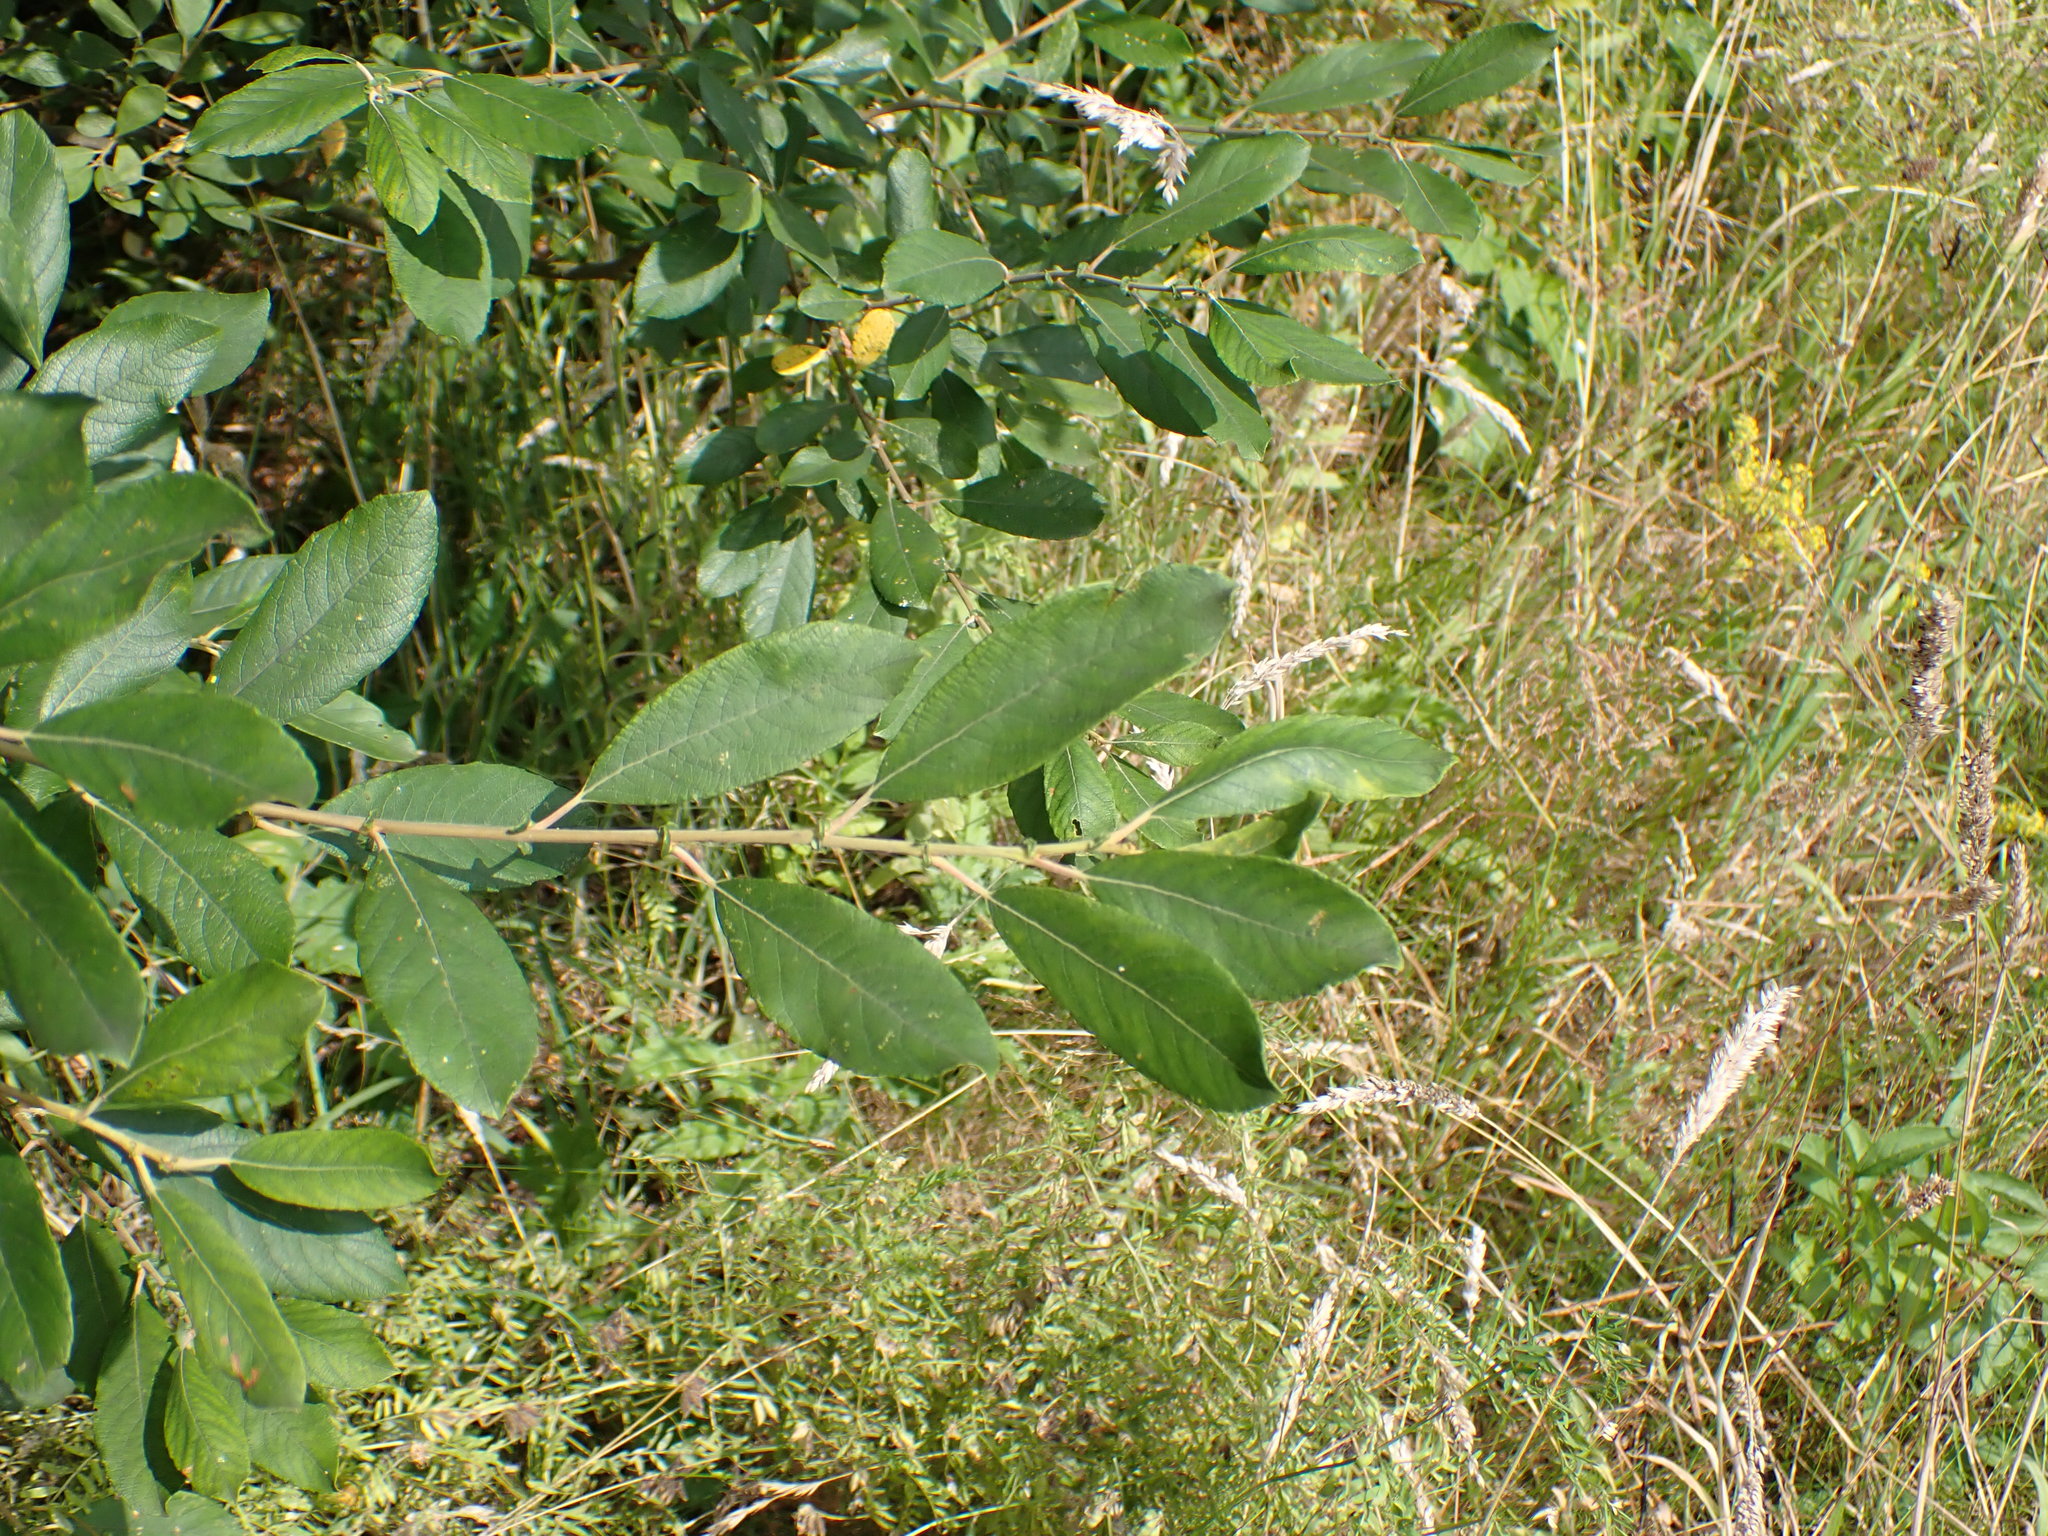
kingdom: Plantae
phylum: Tracheophyta
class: Magnoliopsida
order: Malpighiales
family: Salicaceae
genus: Salix
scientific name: Salix cinerea
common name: Common sallow
